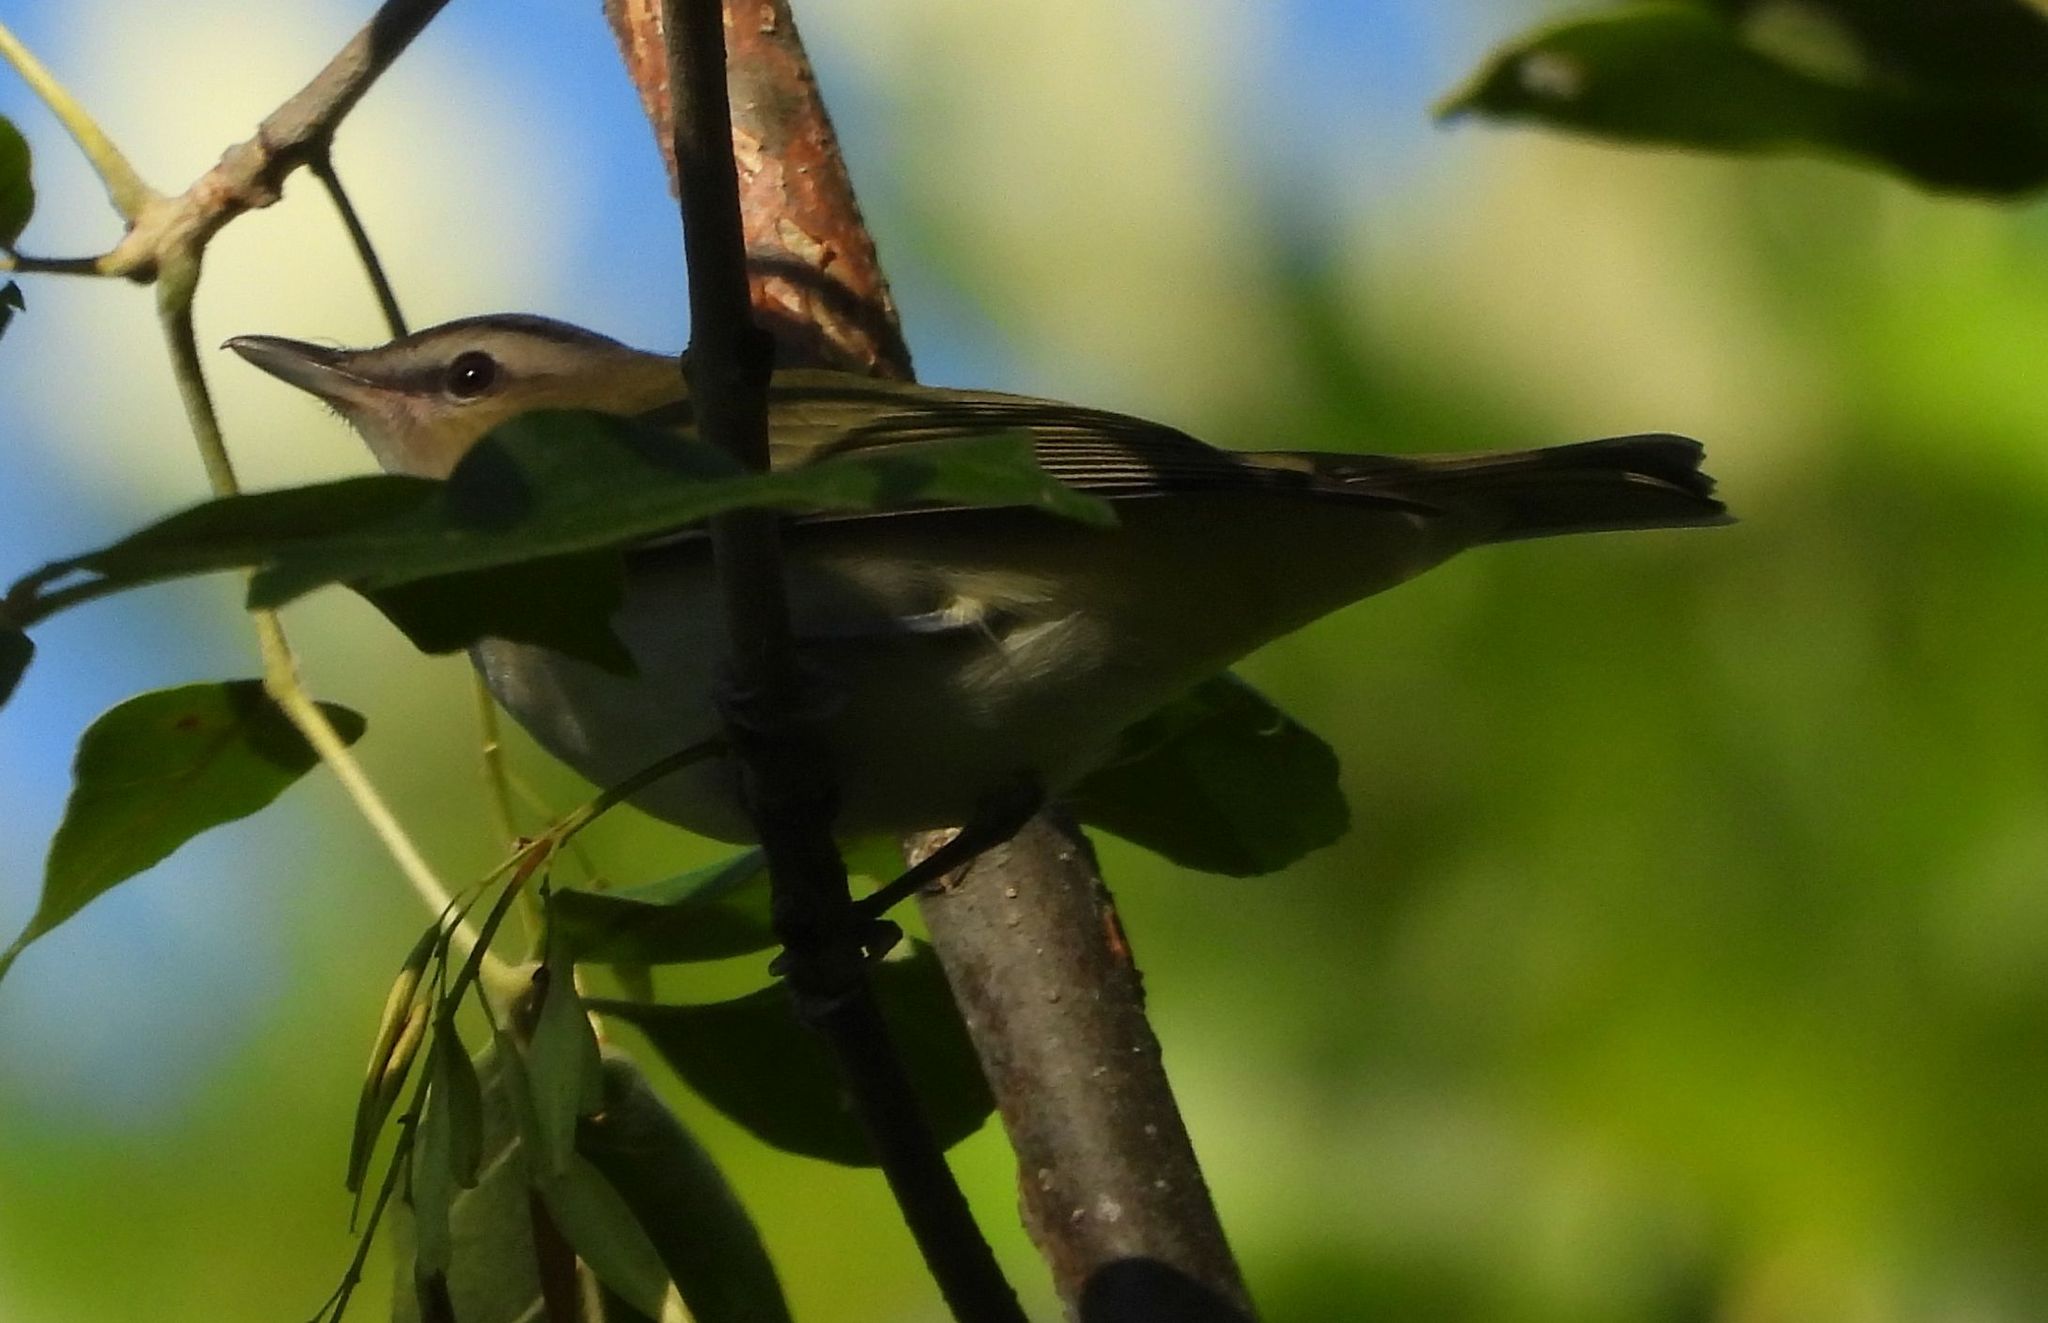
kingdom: Animalia
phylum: Chordata
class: Aves
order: Passeriformes
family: Vireonidae
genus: Vireo
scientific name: Vireo olivaceus
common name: Red-eyed vireo
